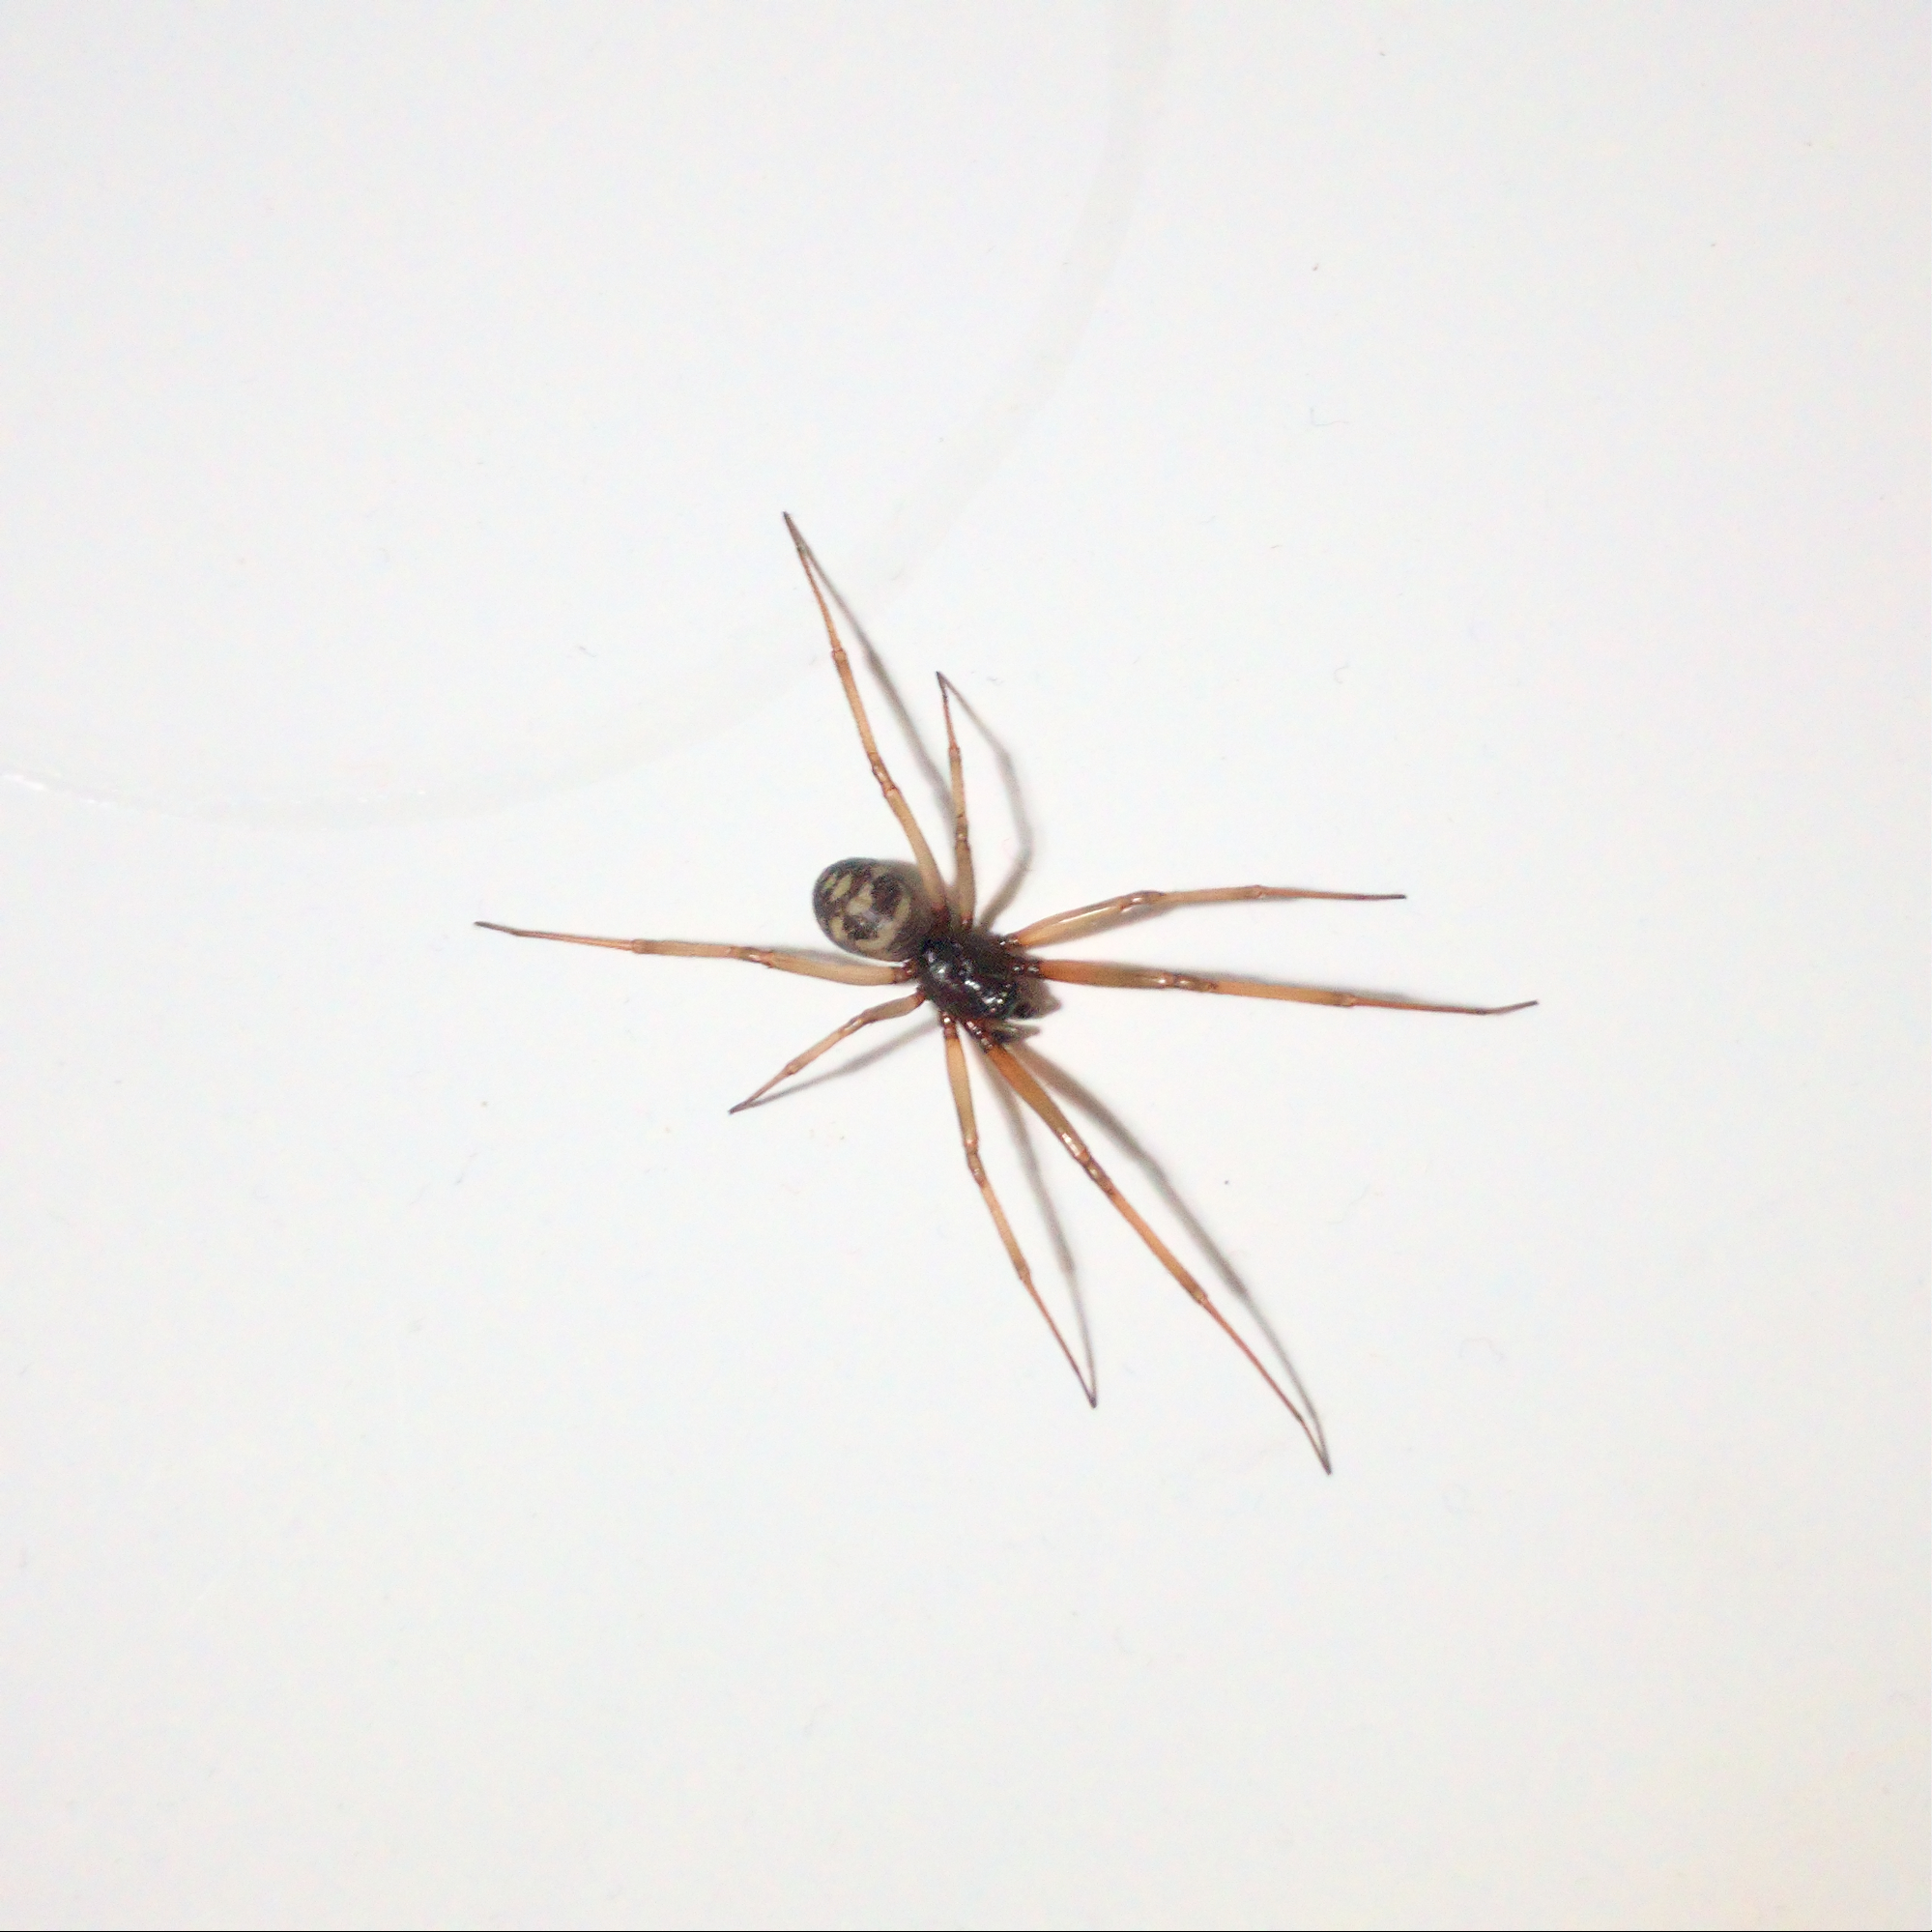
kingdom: Animalia
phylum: Arthropoda
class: Arachnida
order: Araneae
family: Theridiidae
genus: Steatoda
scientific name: Steatoda grossa
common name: False black widow
